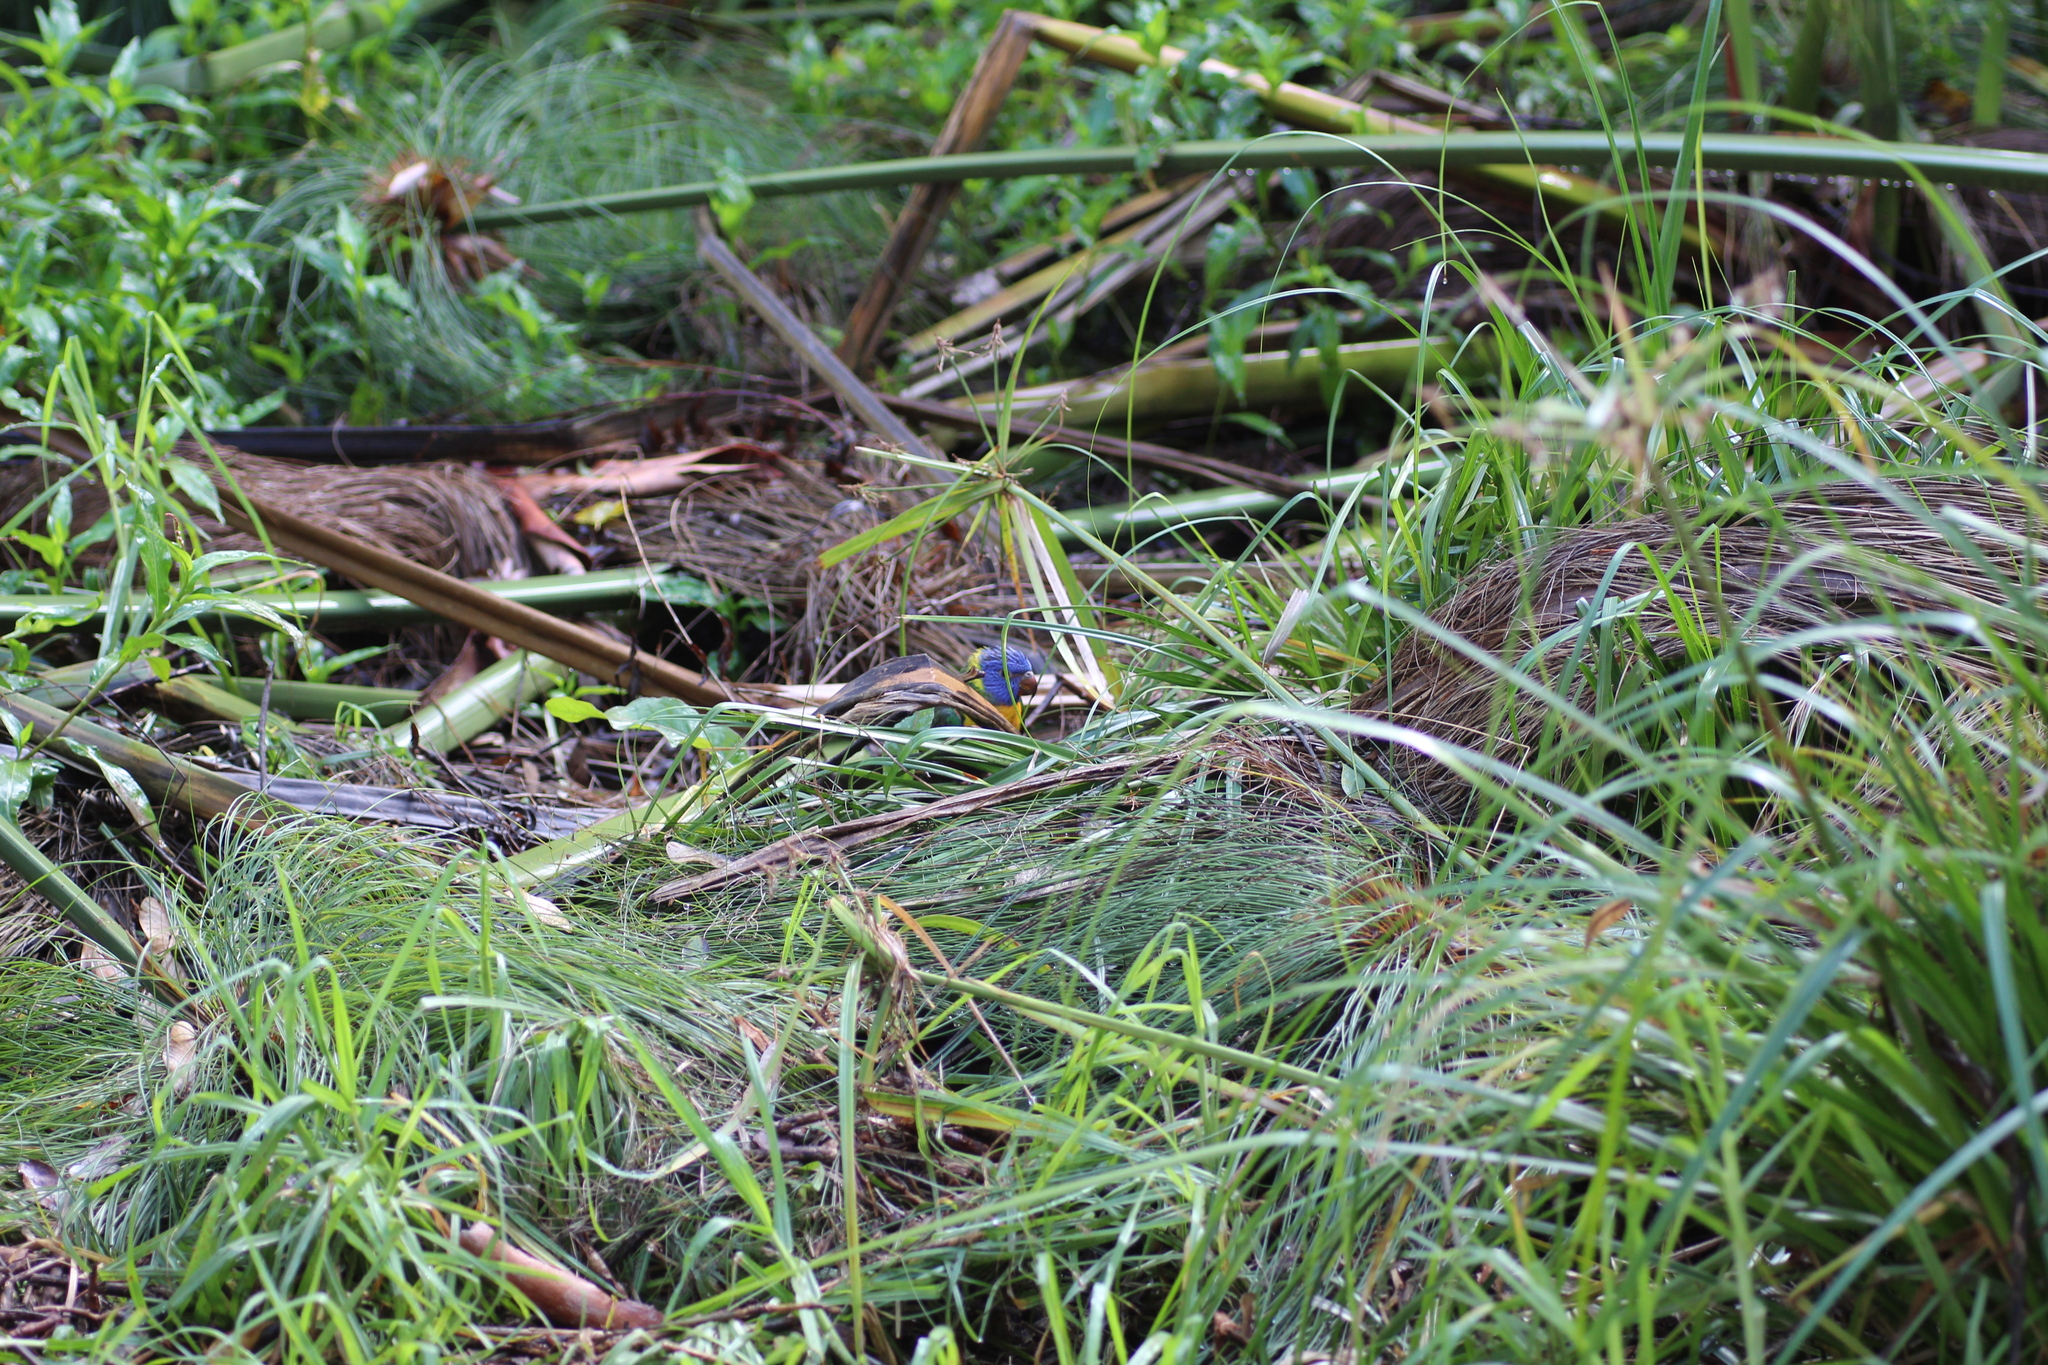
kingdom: Animalia
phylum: Chordata
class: Aves
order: Psittaciformes
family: Psittacidae
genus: Trichoglossus
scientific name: Trichoglossus haematodus
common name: Coconut lorikeet
